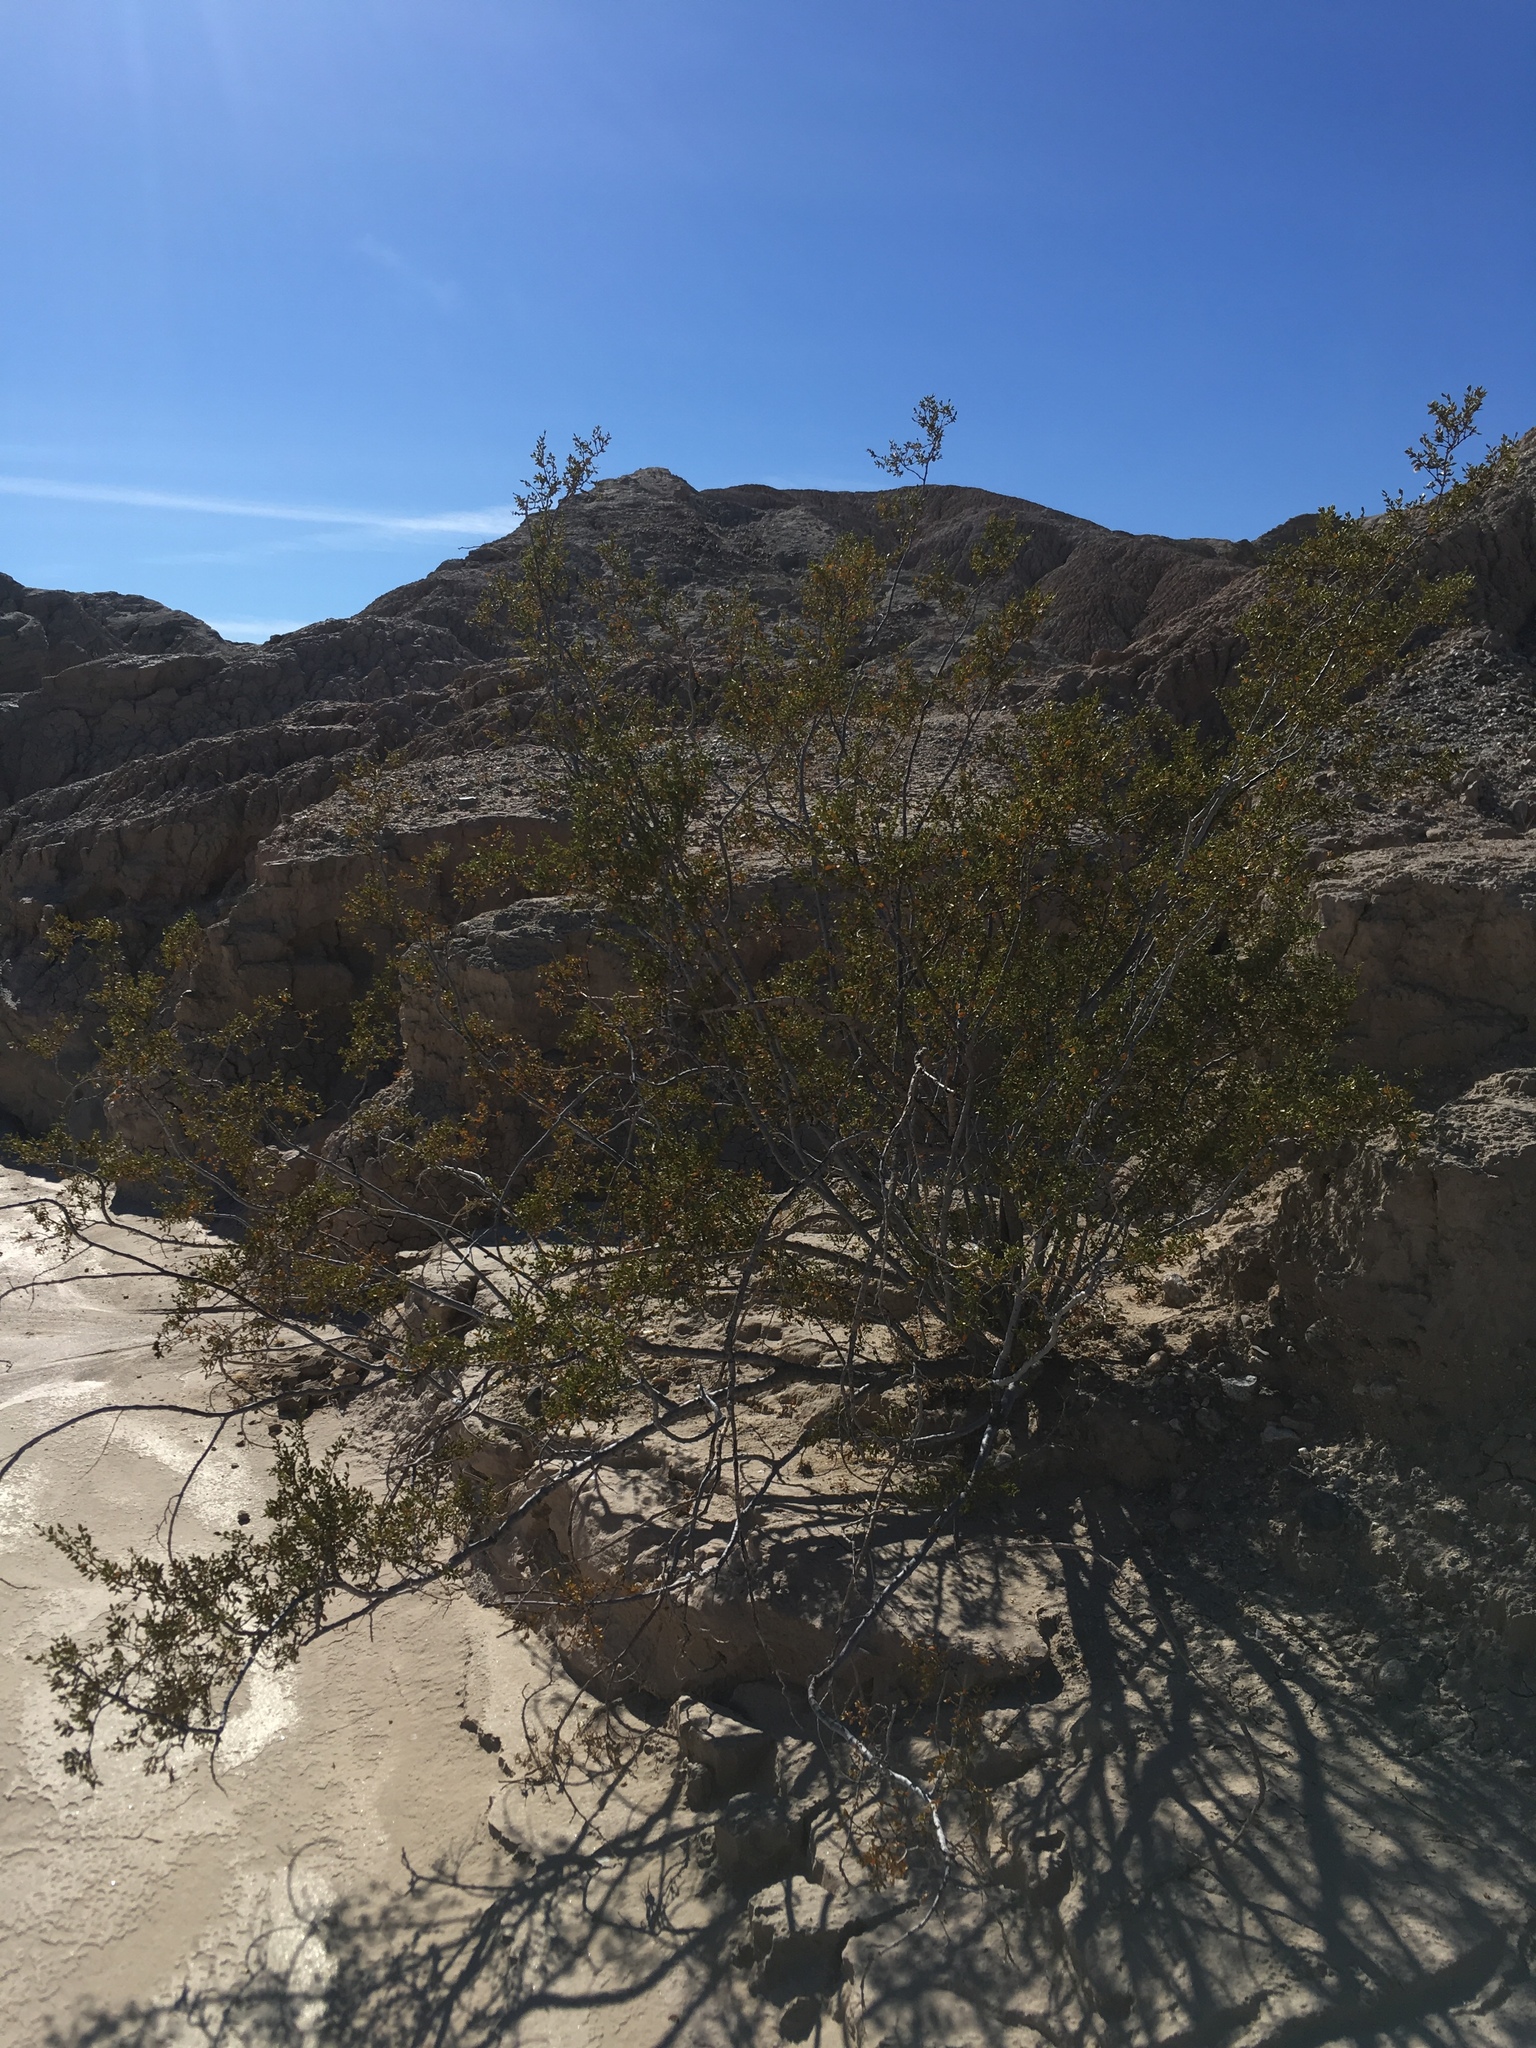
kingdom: Plantae
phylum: Tracheophyta
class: Magnoliopsida
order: Zygophyllales
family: Zygophyllaceae
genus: Larrea
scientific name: Larrea tridentata
